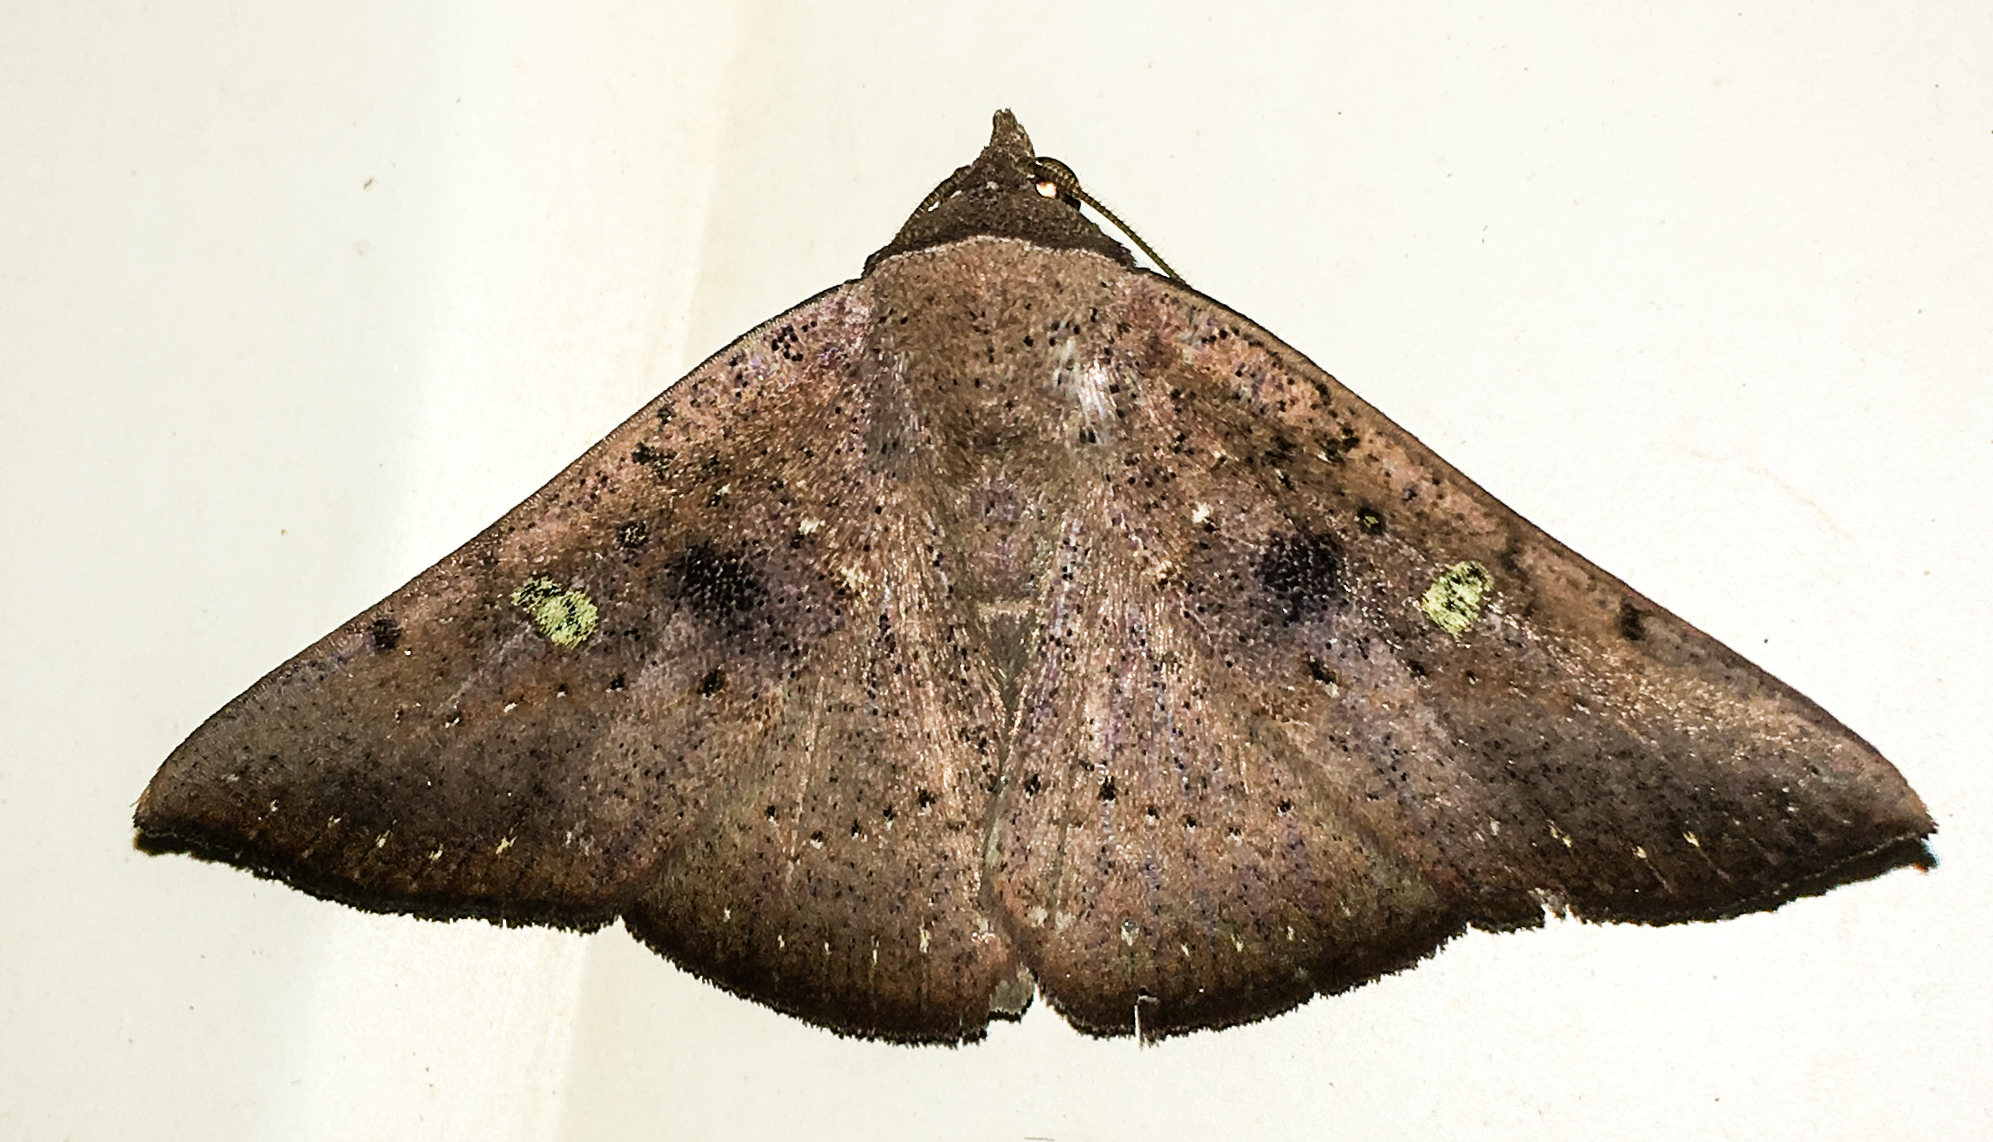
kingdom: Animalia
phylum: Arthropoda
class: Insecta
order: Lepidoptera
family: Erebidae
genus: Obroatis
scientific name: Obroatis chloropis
